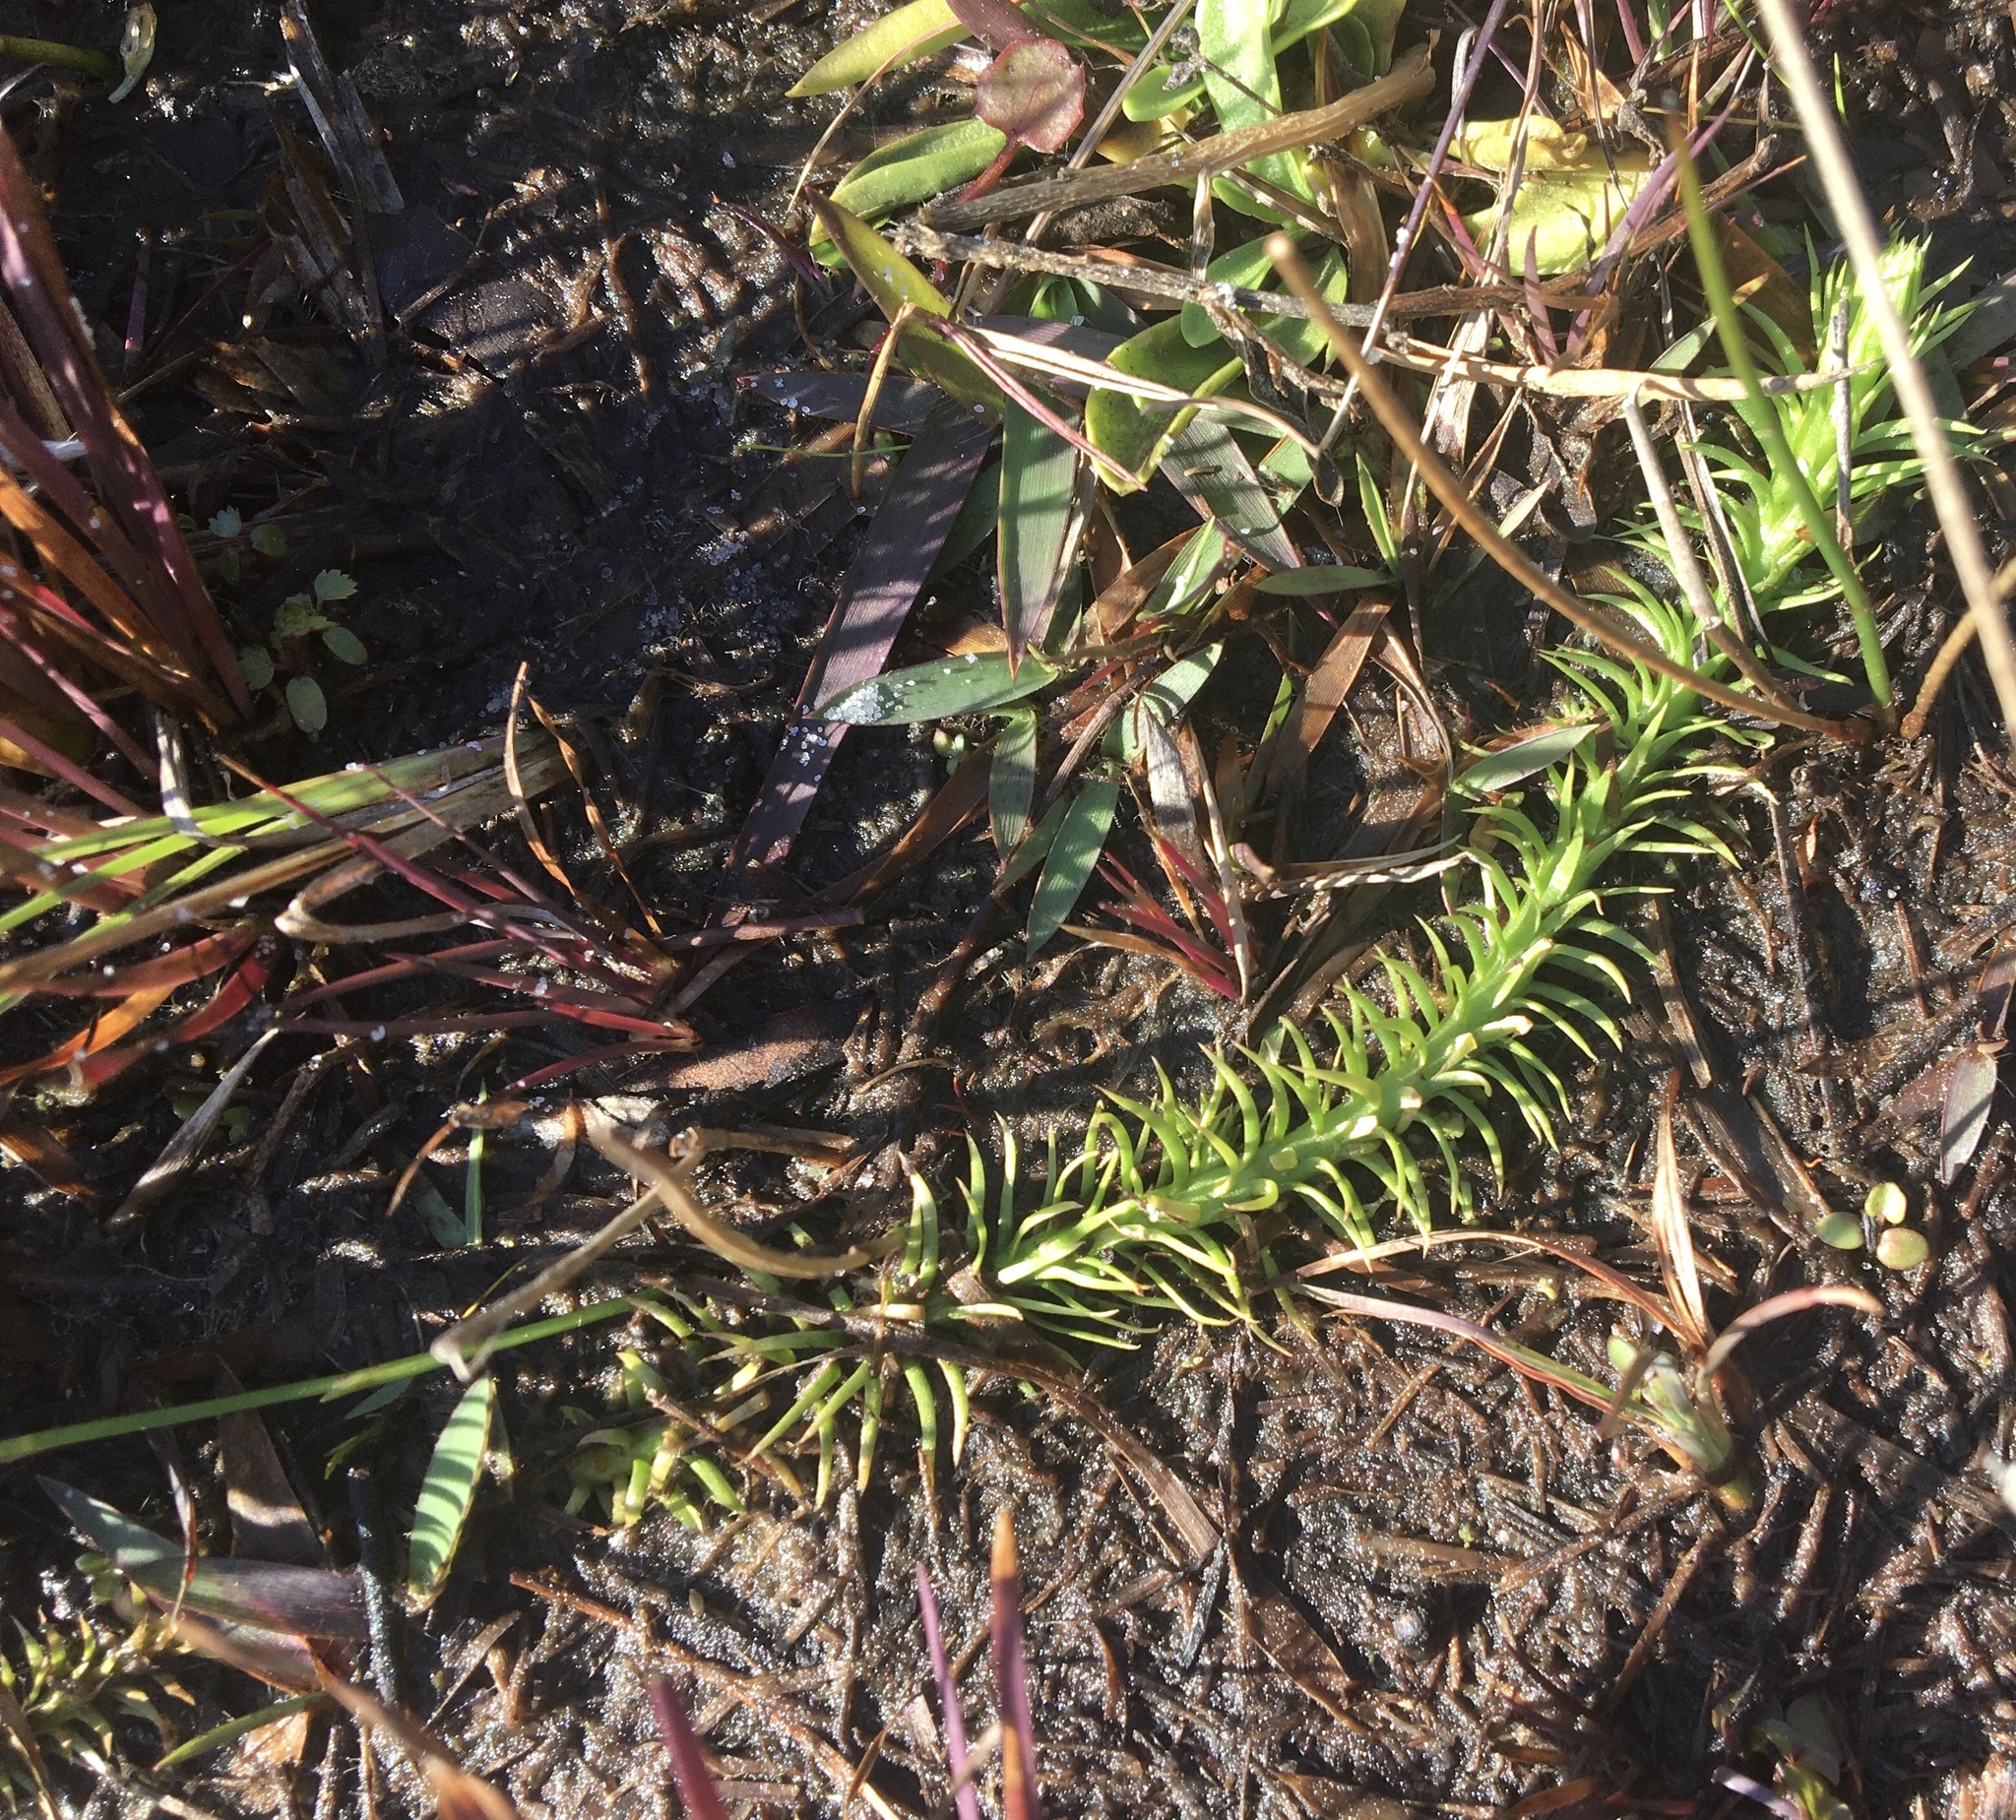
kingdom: Plantae
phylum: Tracheophyta
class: Lycopodiopsida
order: Lycopodiales
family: Lycopodiaceae
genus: Lycopodiella
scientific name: Lycopodiella appressa
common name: Appressed bog clubmoss
